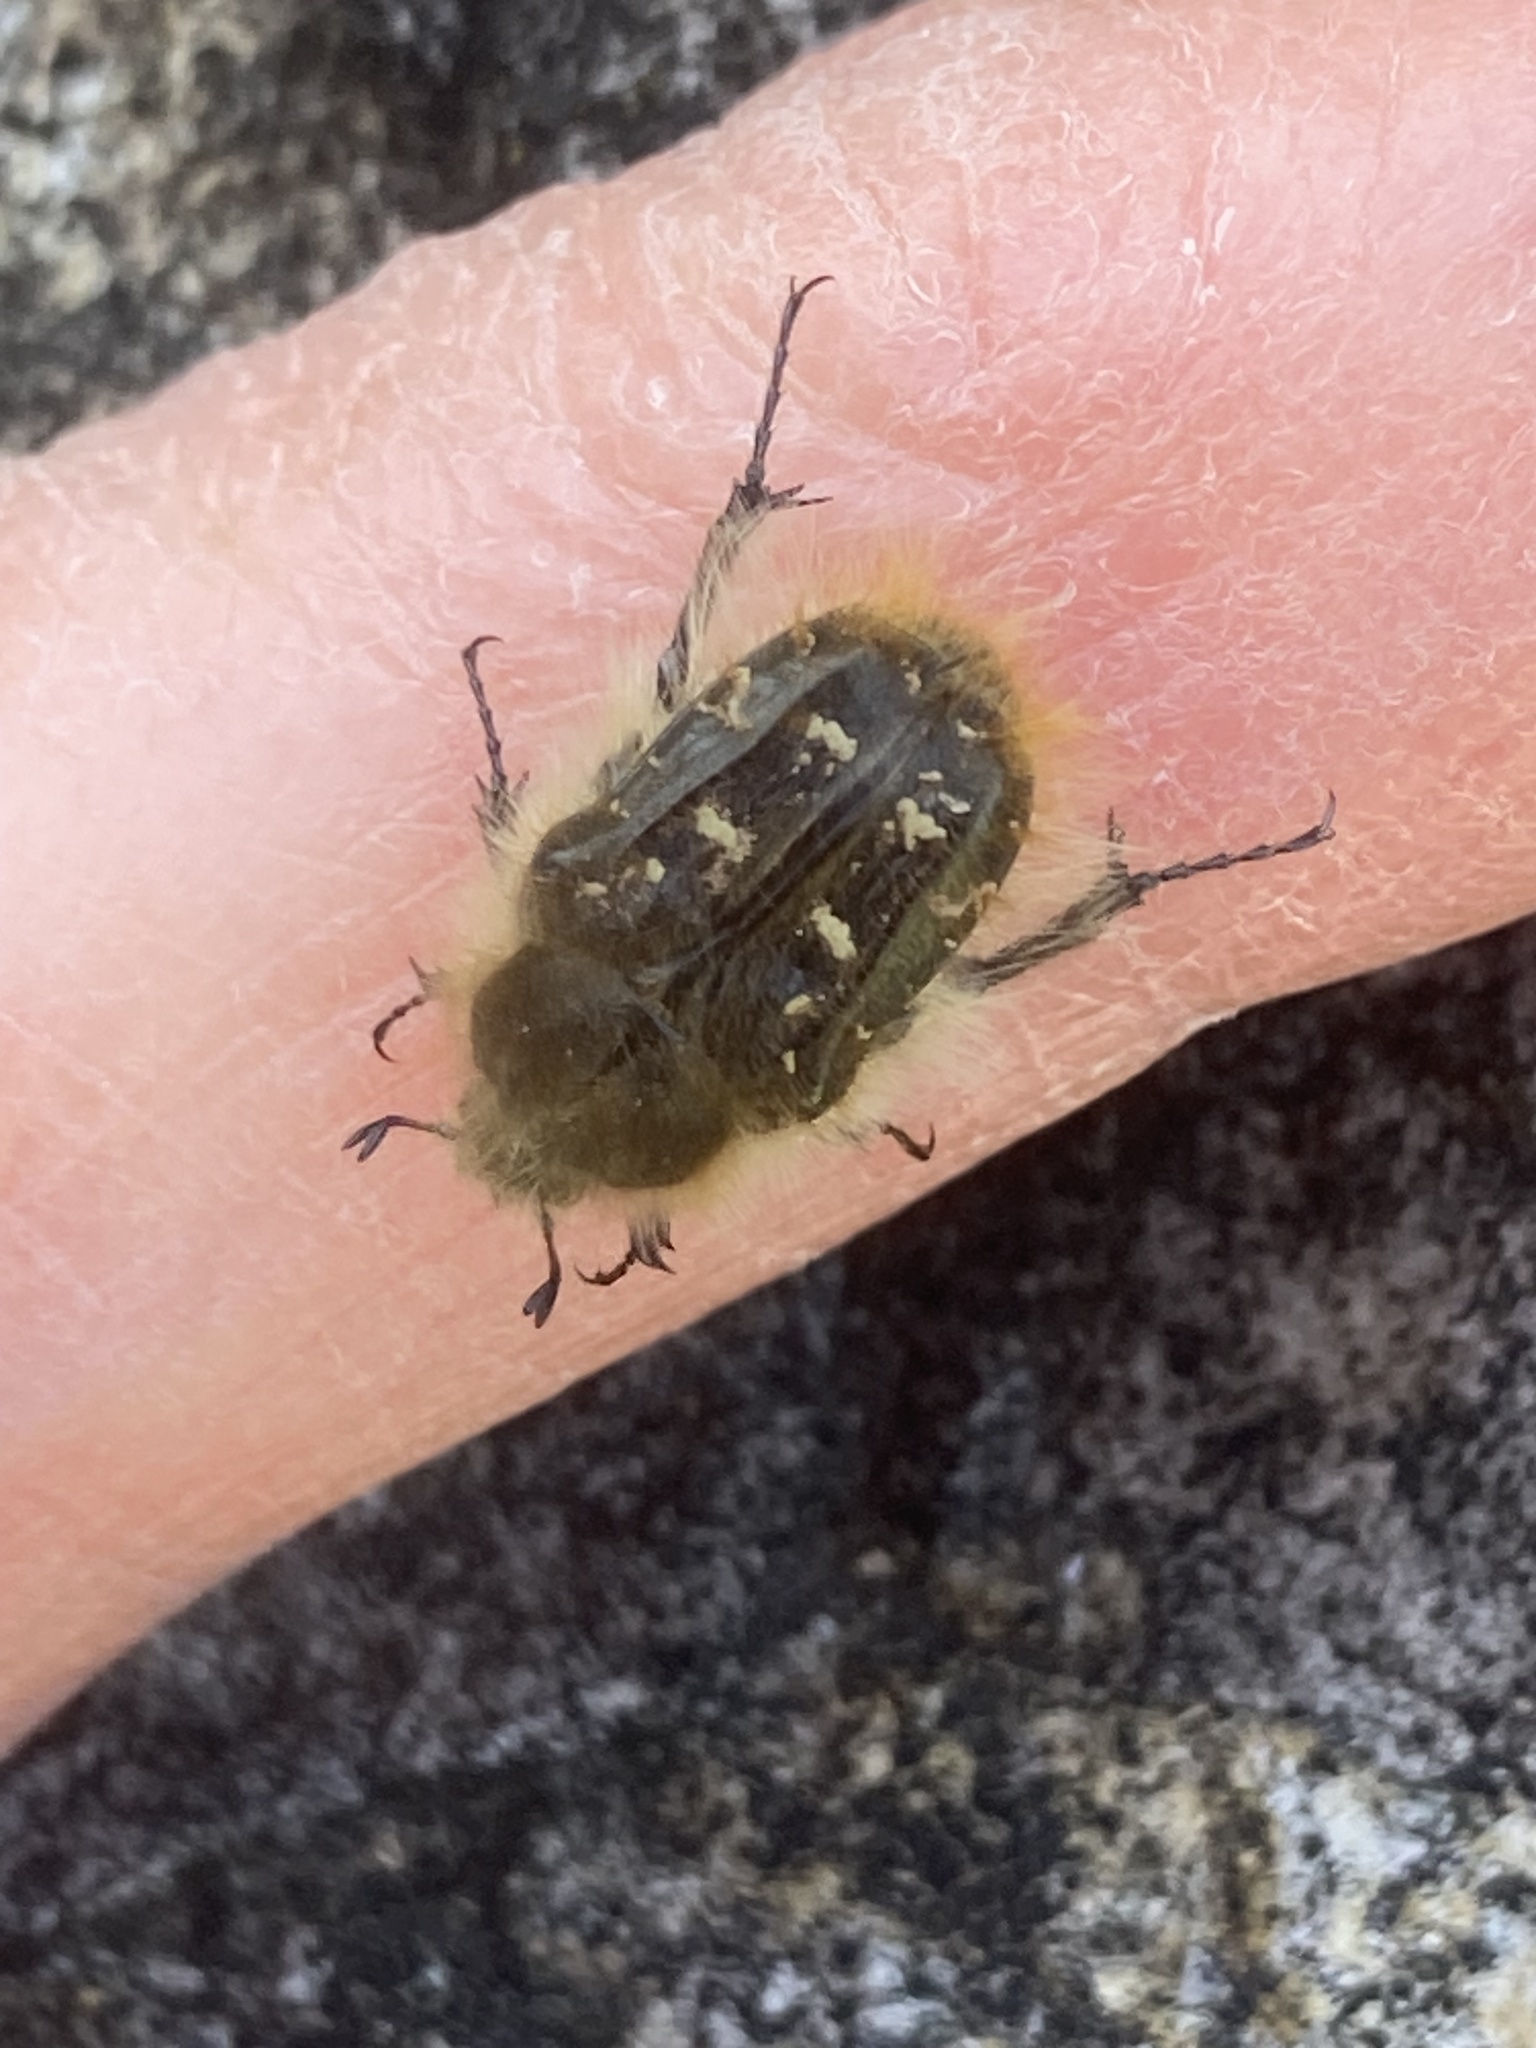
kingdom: Animalia
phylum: Arthropoda
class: Insecta
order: Coleoptera
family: Scarabaeidae
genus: Tropinota
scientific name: Tropinota squalida
